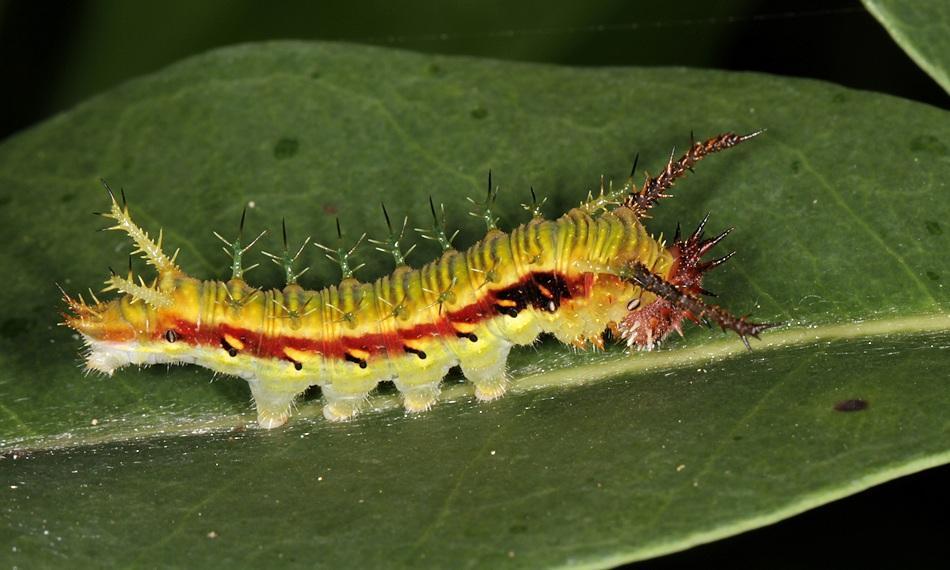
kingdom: Animalia
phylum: Arthropoda
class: Insecta
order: Lepidoptera
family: Nymphalidae
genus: Chloropoea
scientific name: Chloropoea lucretia
